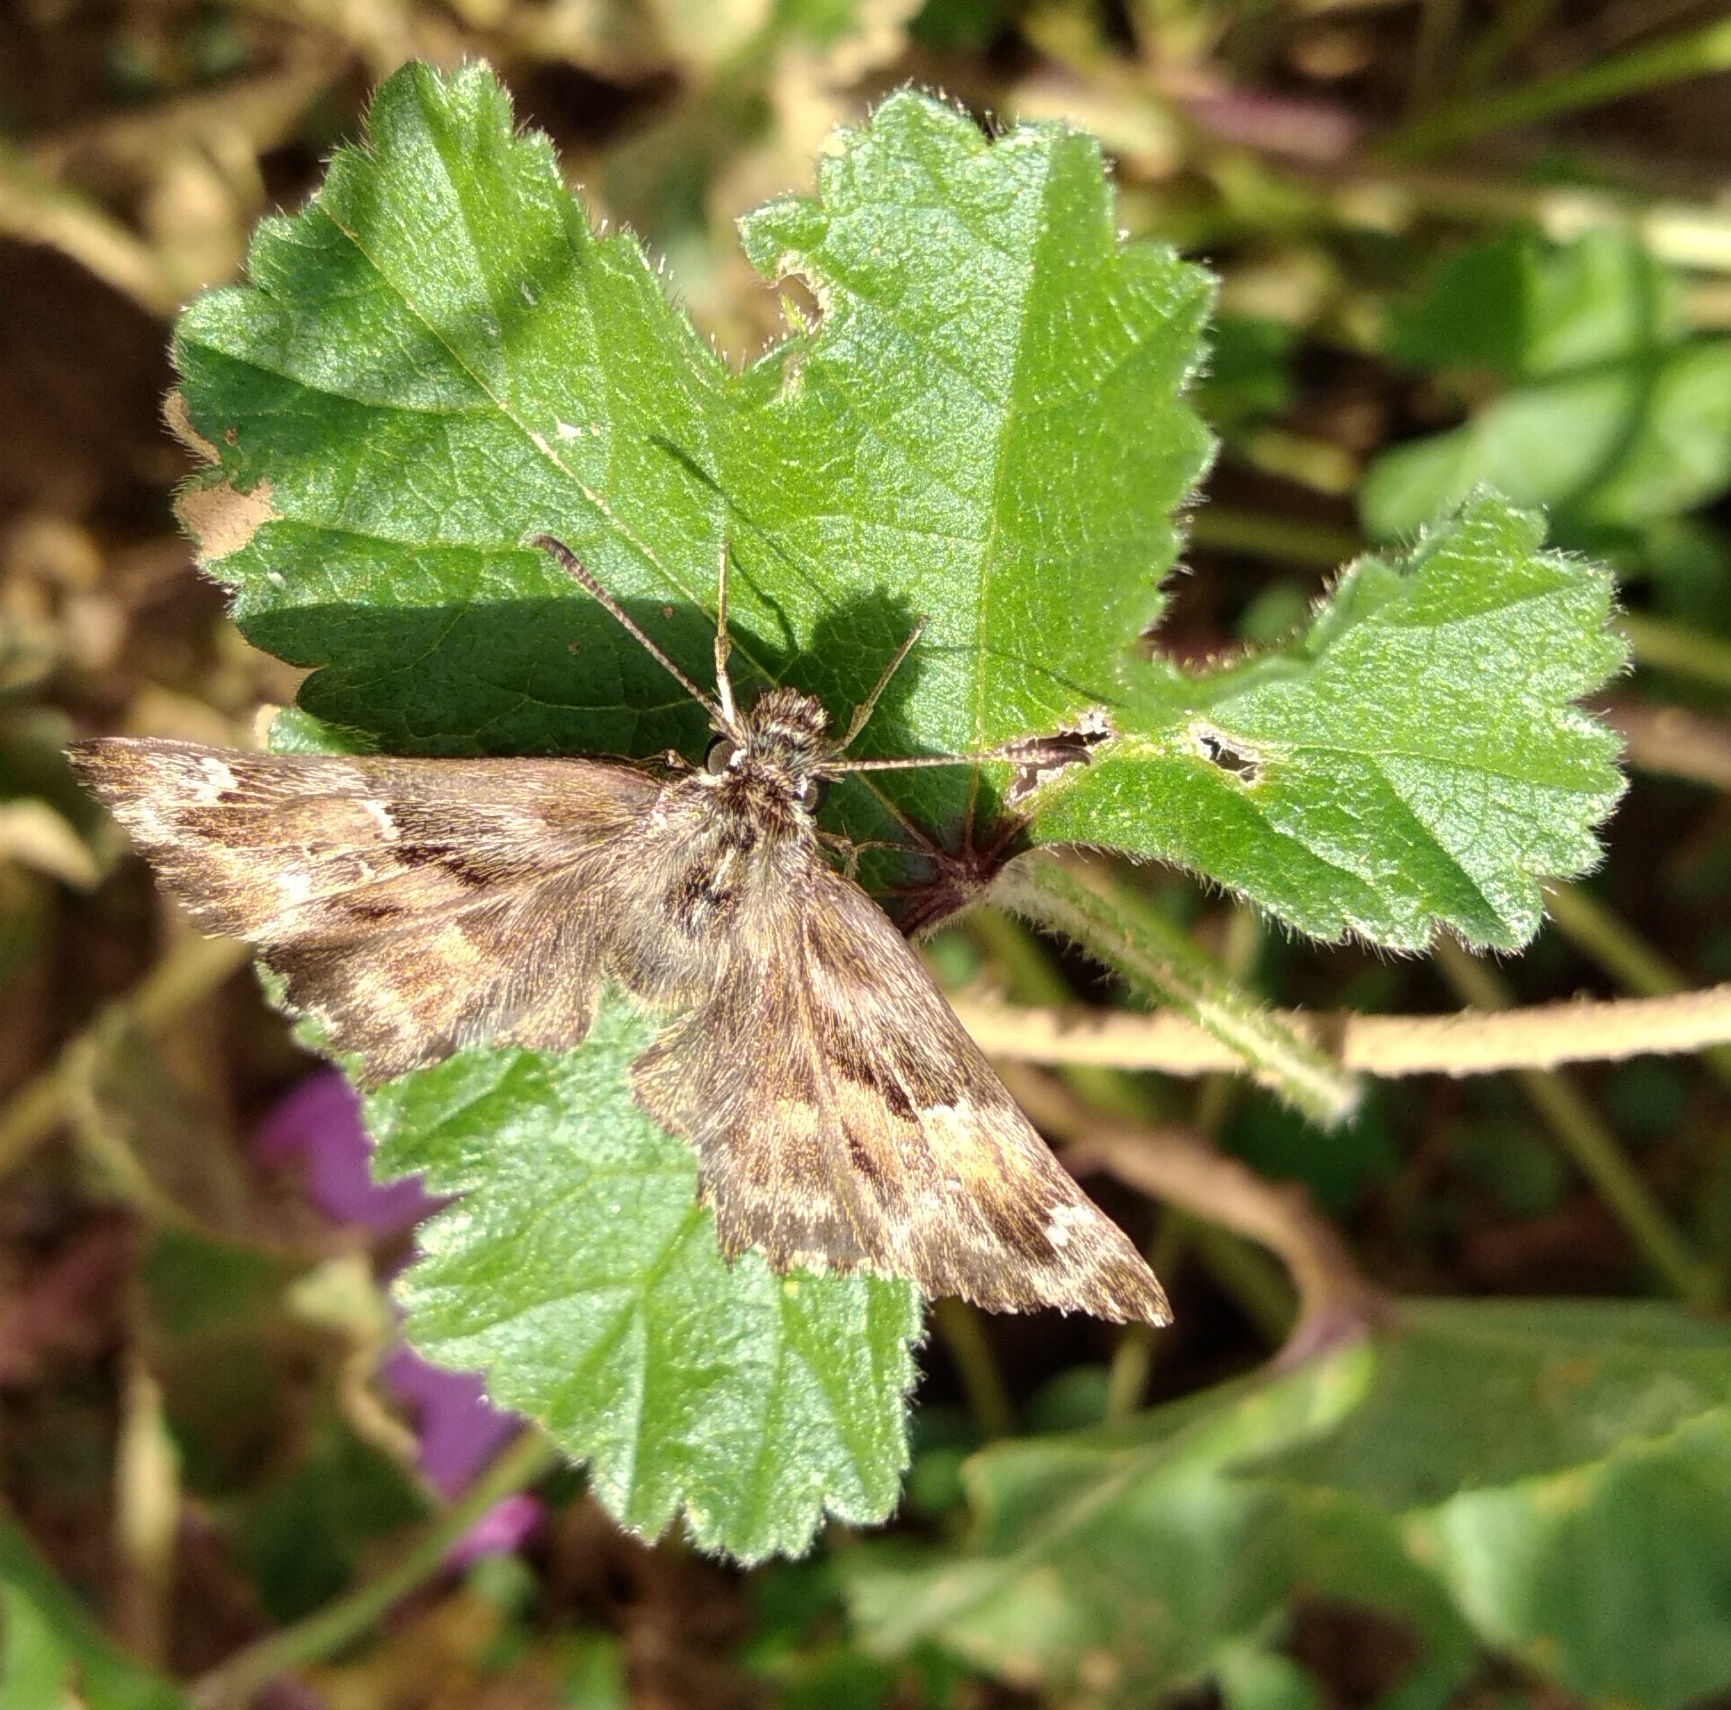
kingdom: Animalia
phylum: Arthropoda
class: Insecta
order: Lepidoptera
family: Hesperiidae
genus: Carcharodus
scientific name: Carcharodus alceae
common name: Mallow skipper
